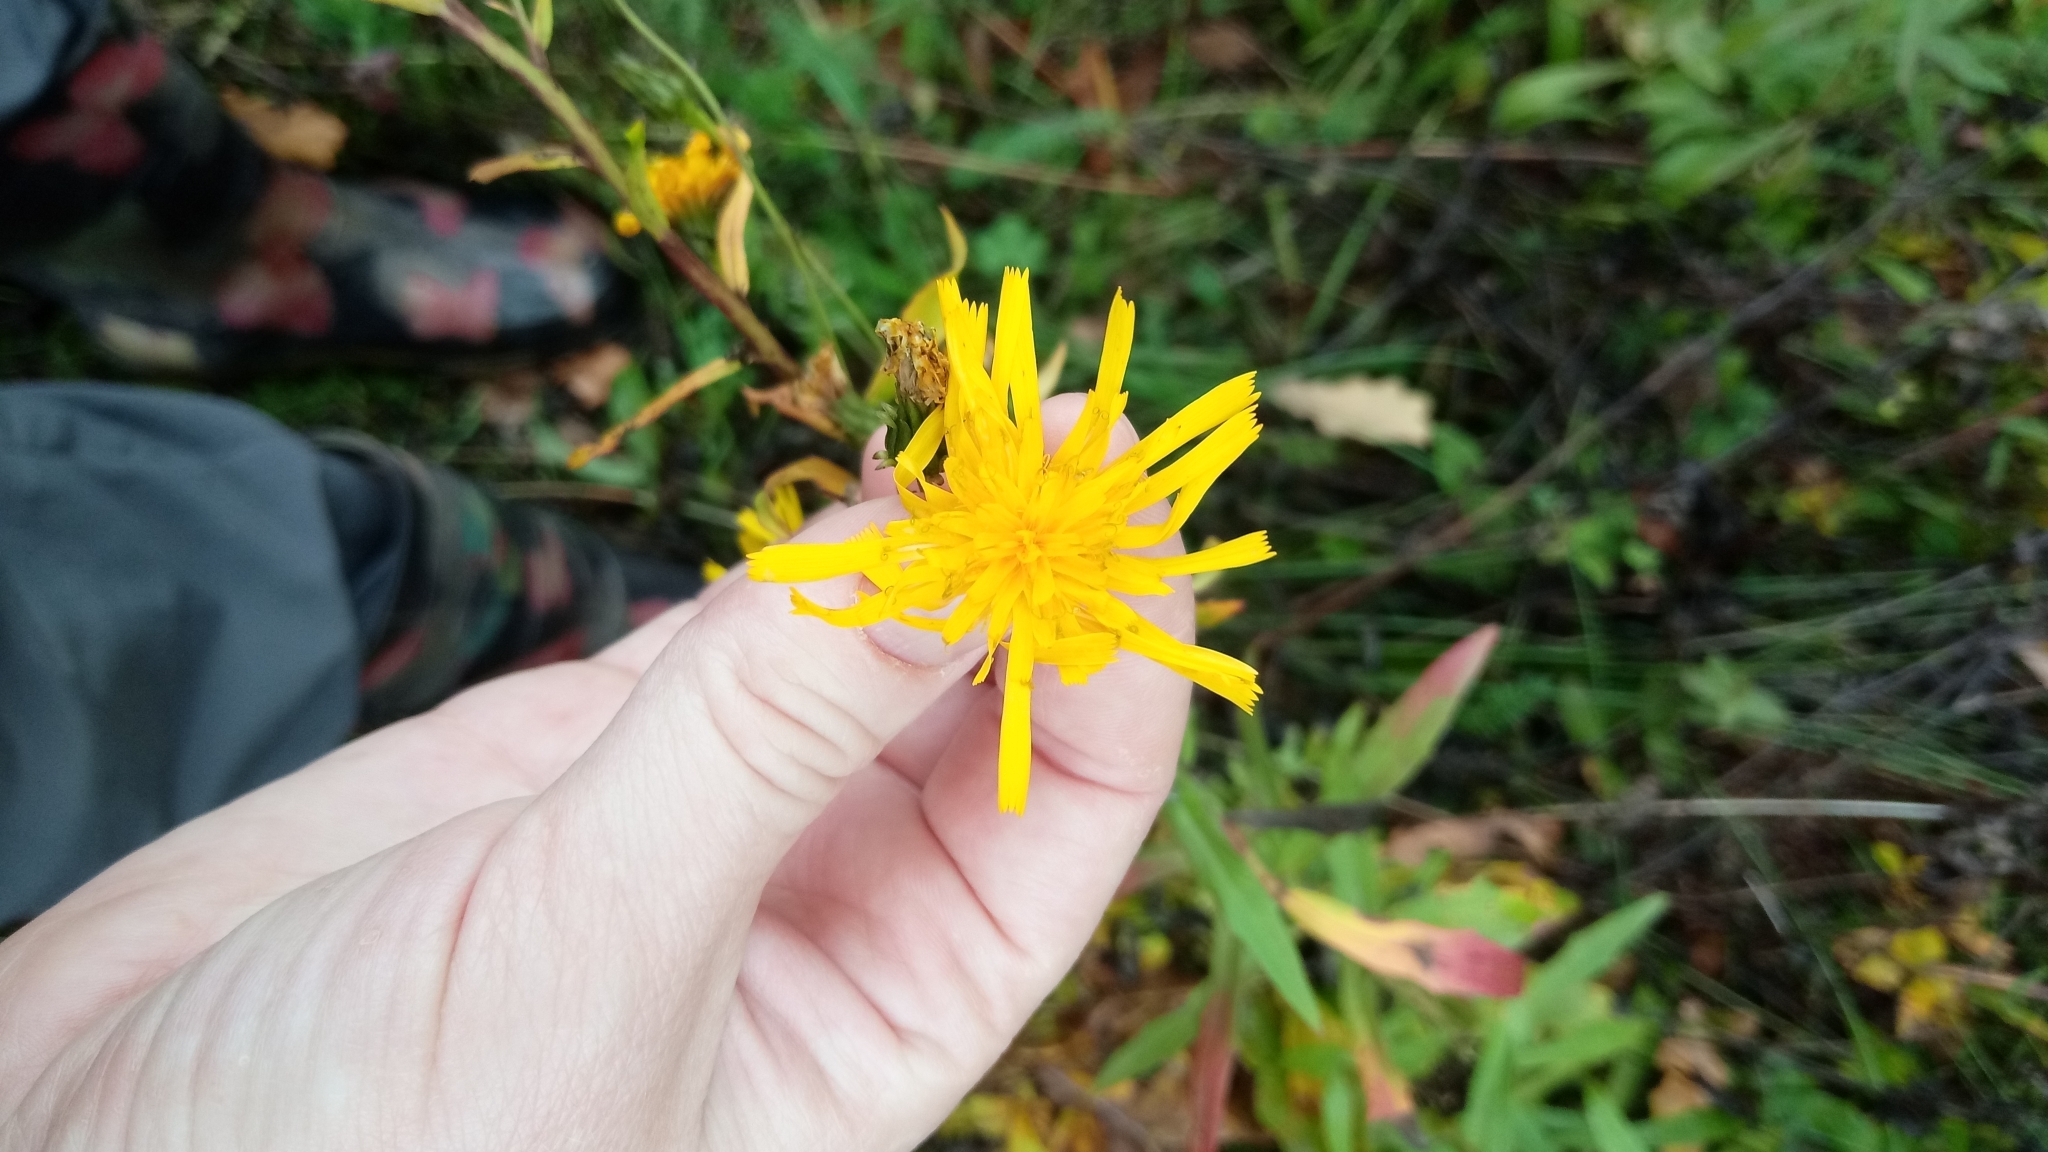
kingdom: Plantae
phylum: Tracheophyta
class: Magnoliopsida
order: Asterales
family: Asteraceae
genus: Hieracium
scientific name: Hieracium umbellatum
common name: Northern hawkweed
